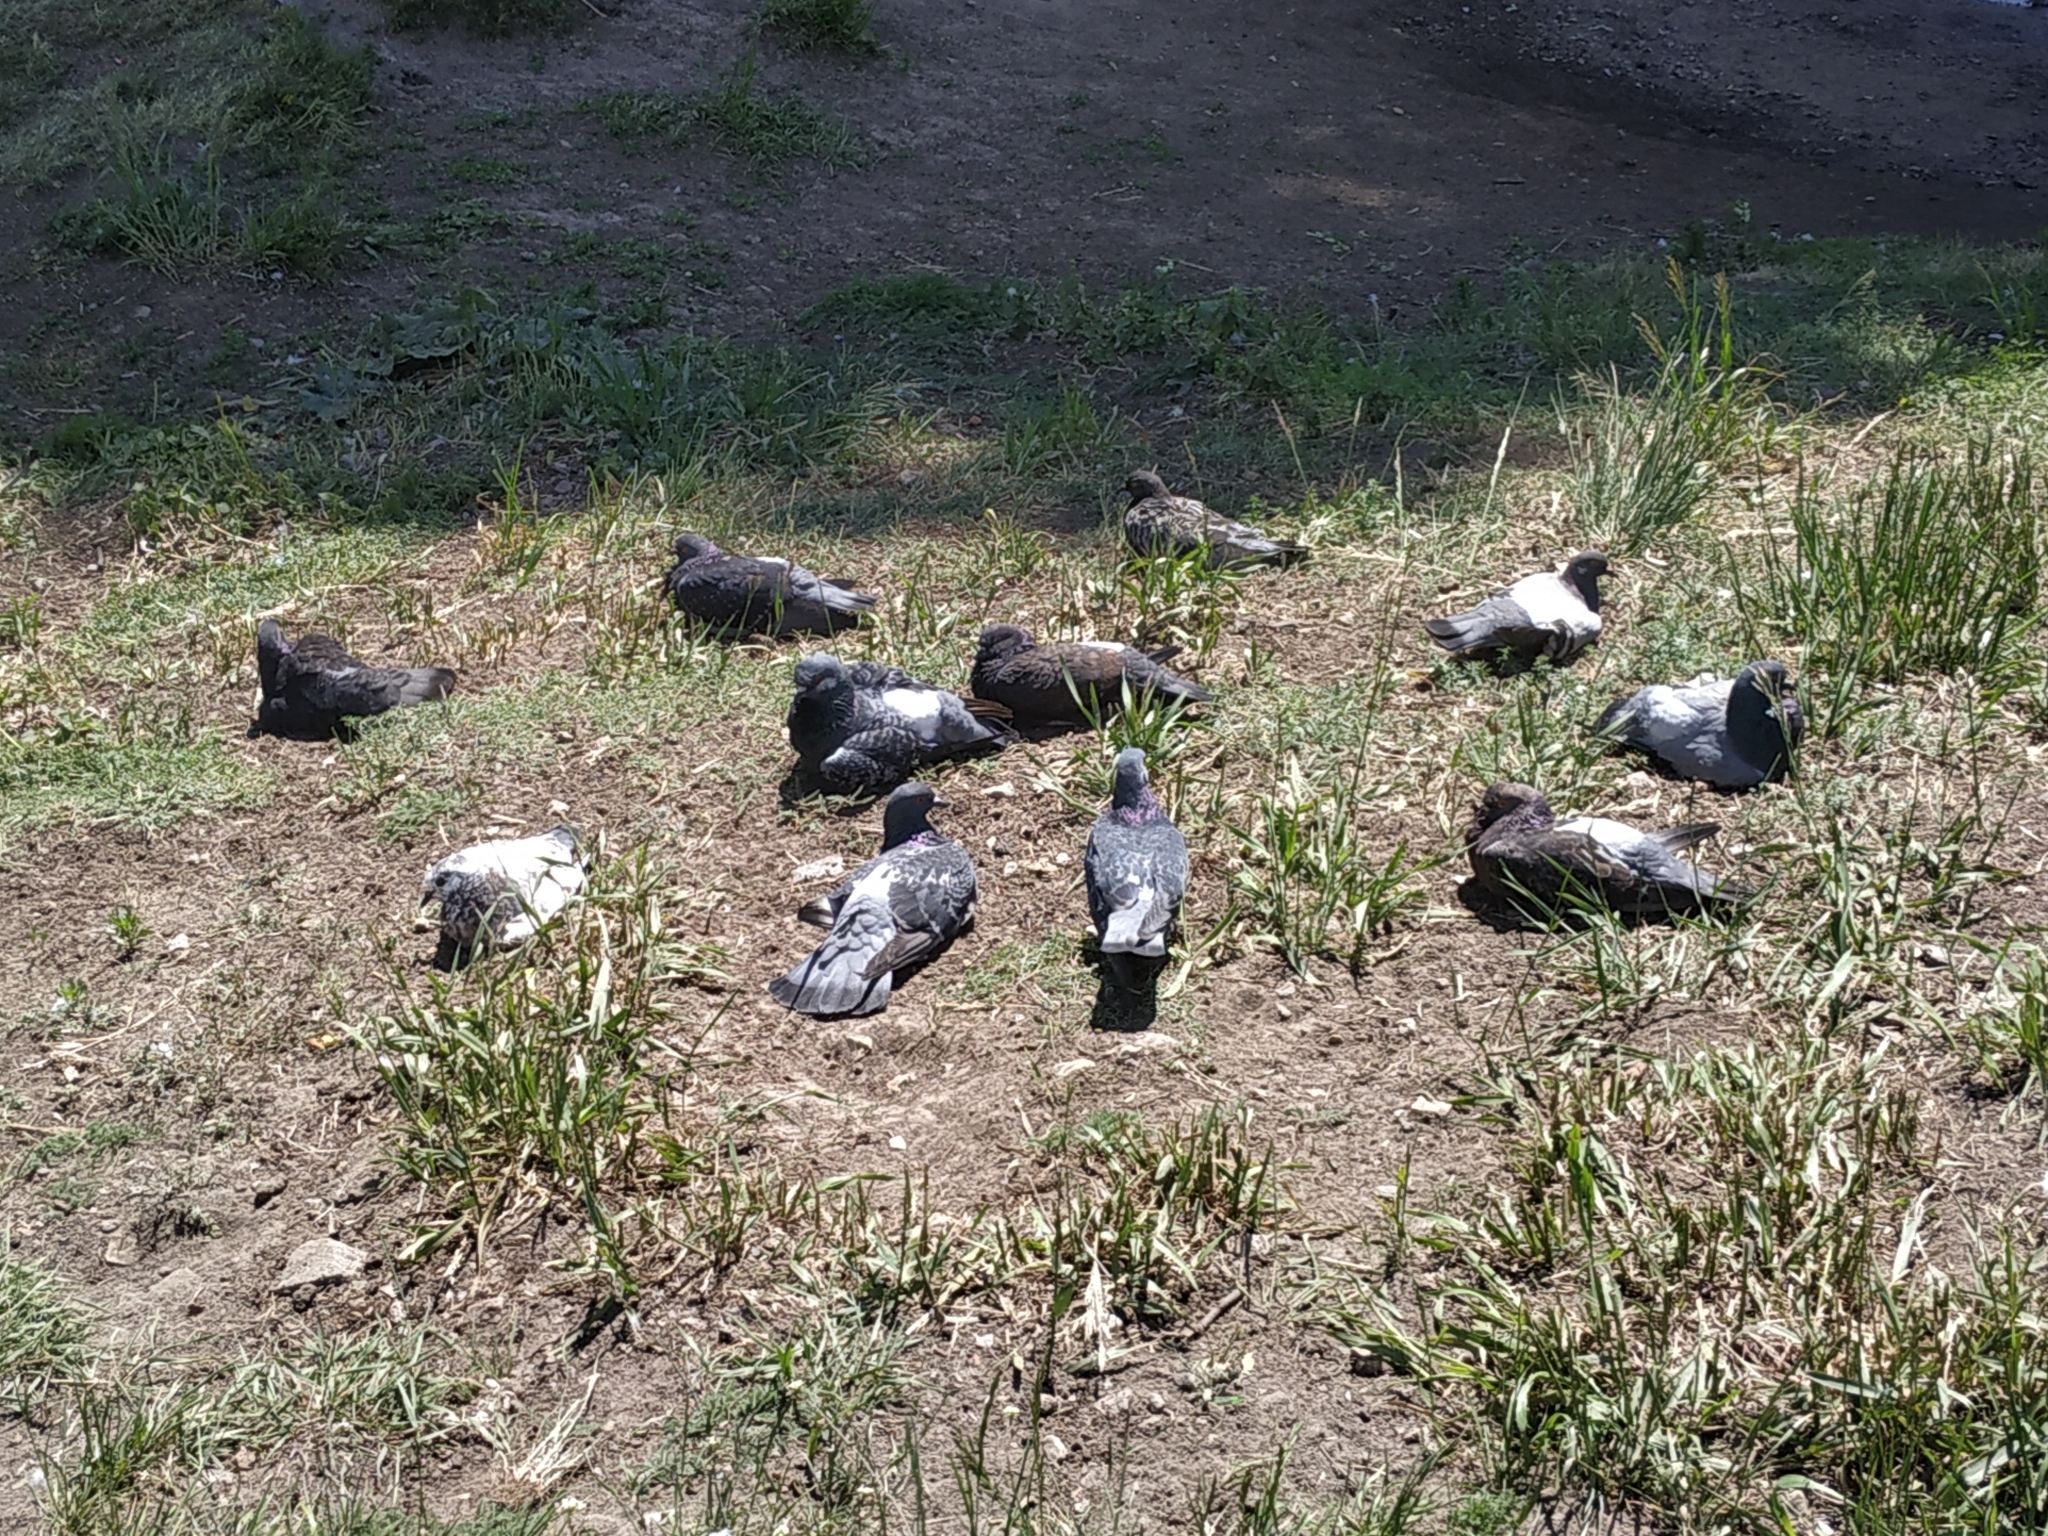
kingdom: Animalia
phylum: Chordata
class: Aves
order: Columbiformes
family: Columbidae
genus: Columba
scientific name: Columba livia
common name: Rock pigeon
